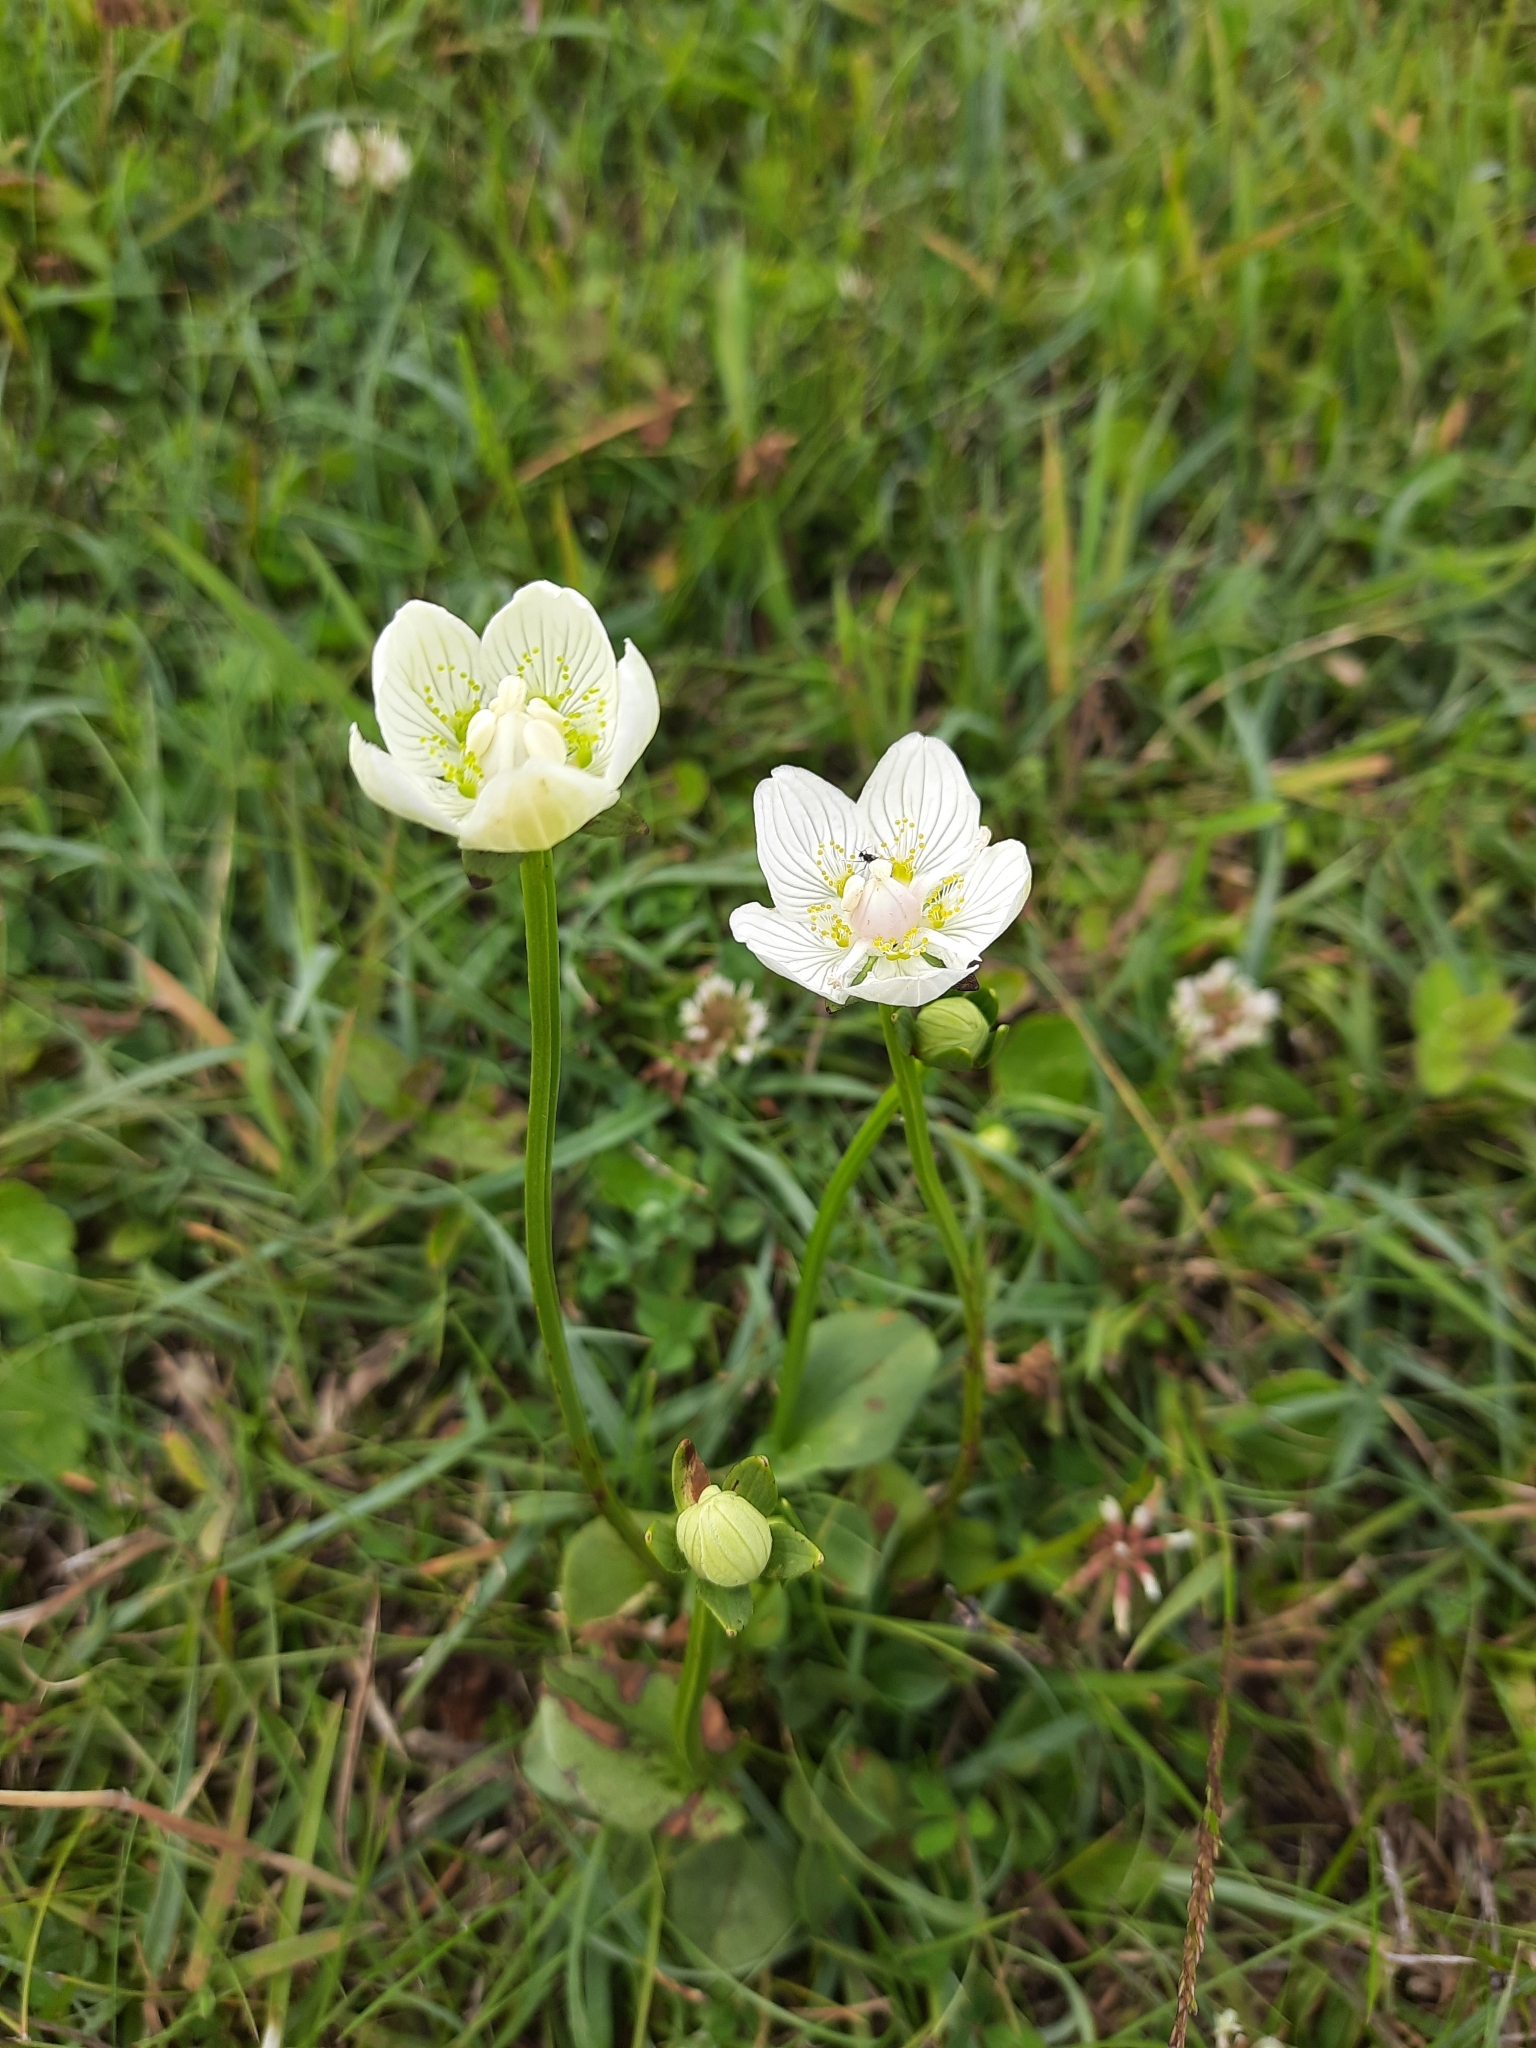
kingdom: Plantae
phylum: Tracheophyta
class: Magnoliopsida
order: Celastrales
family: Parnassiaceae
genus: Parnassia
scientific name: Parnassia palustris
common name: Grass-of-parnassus
